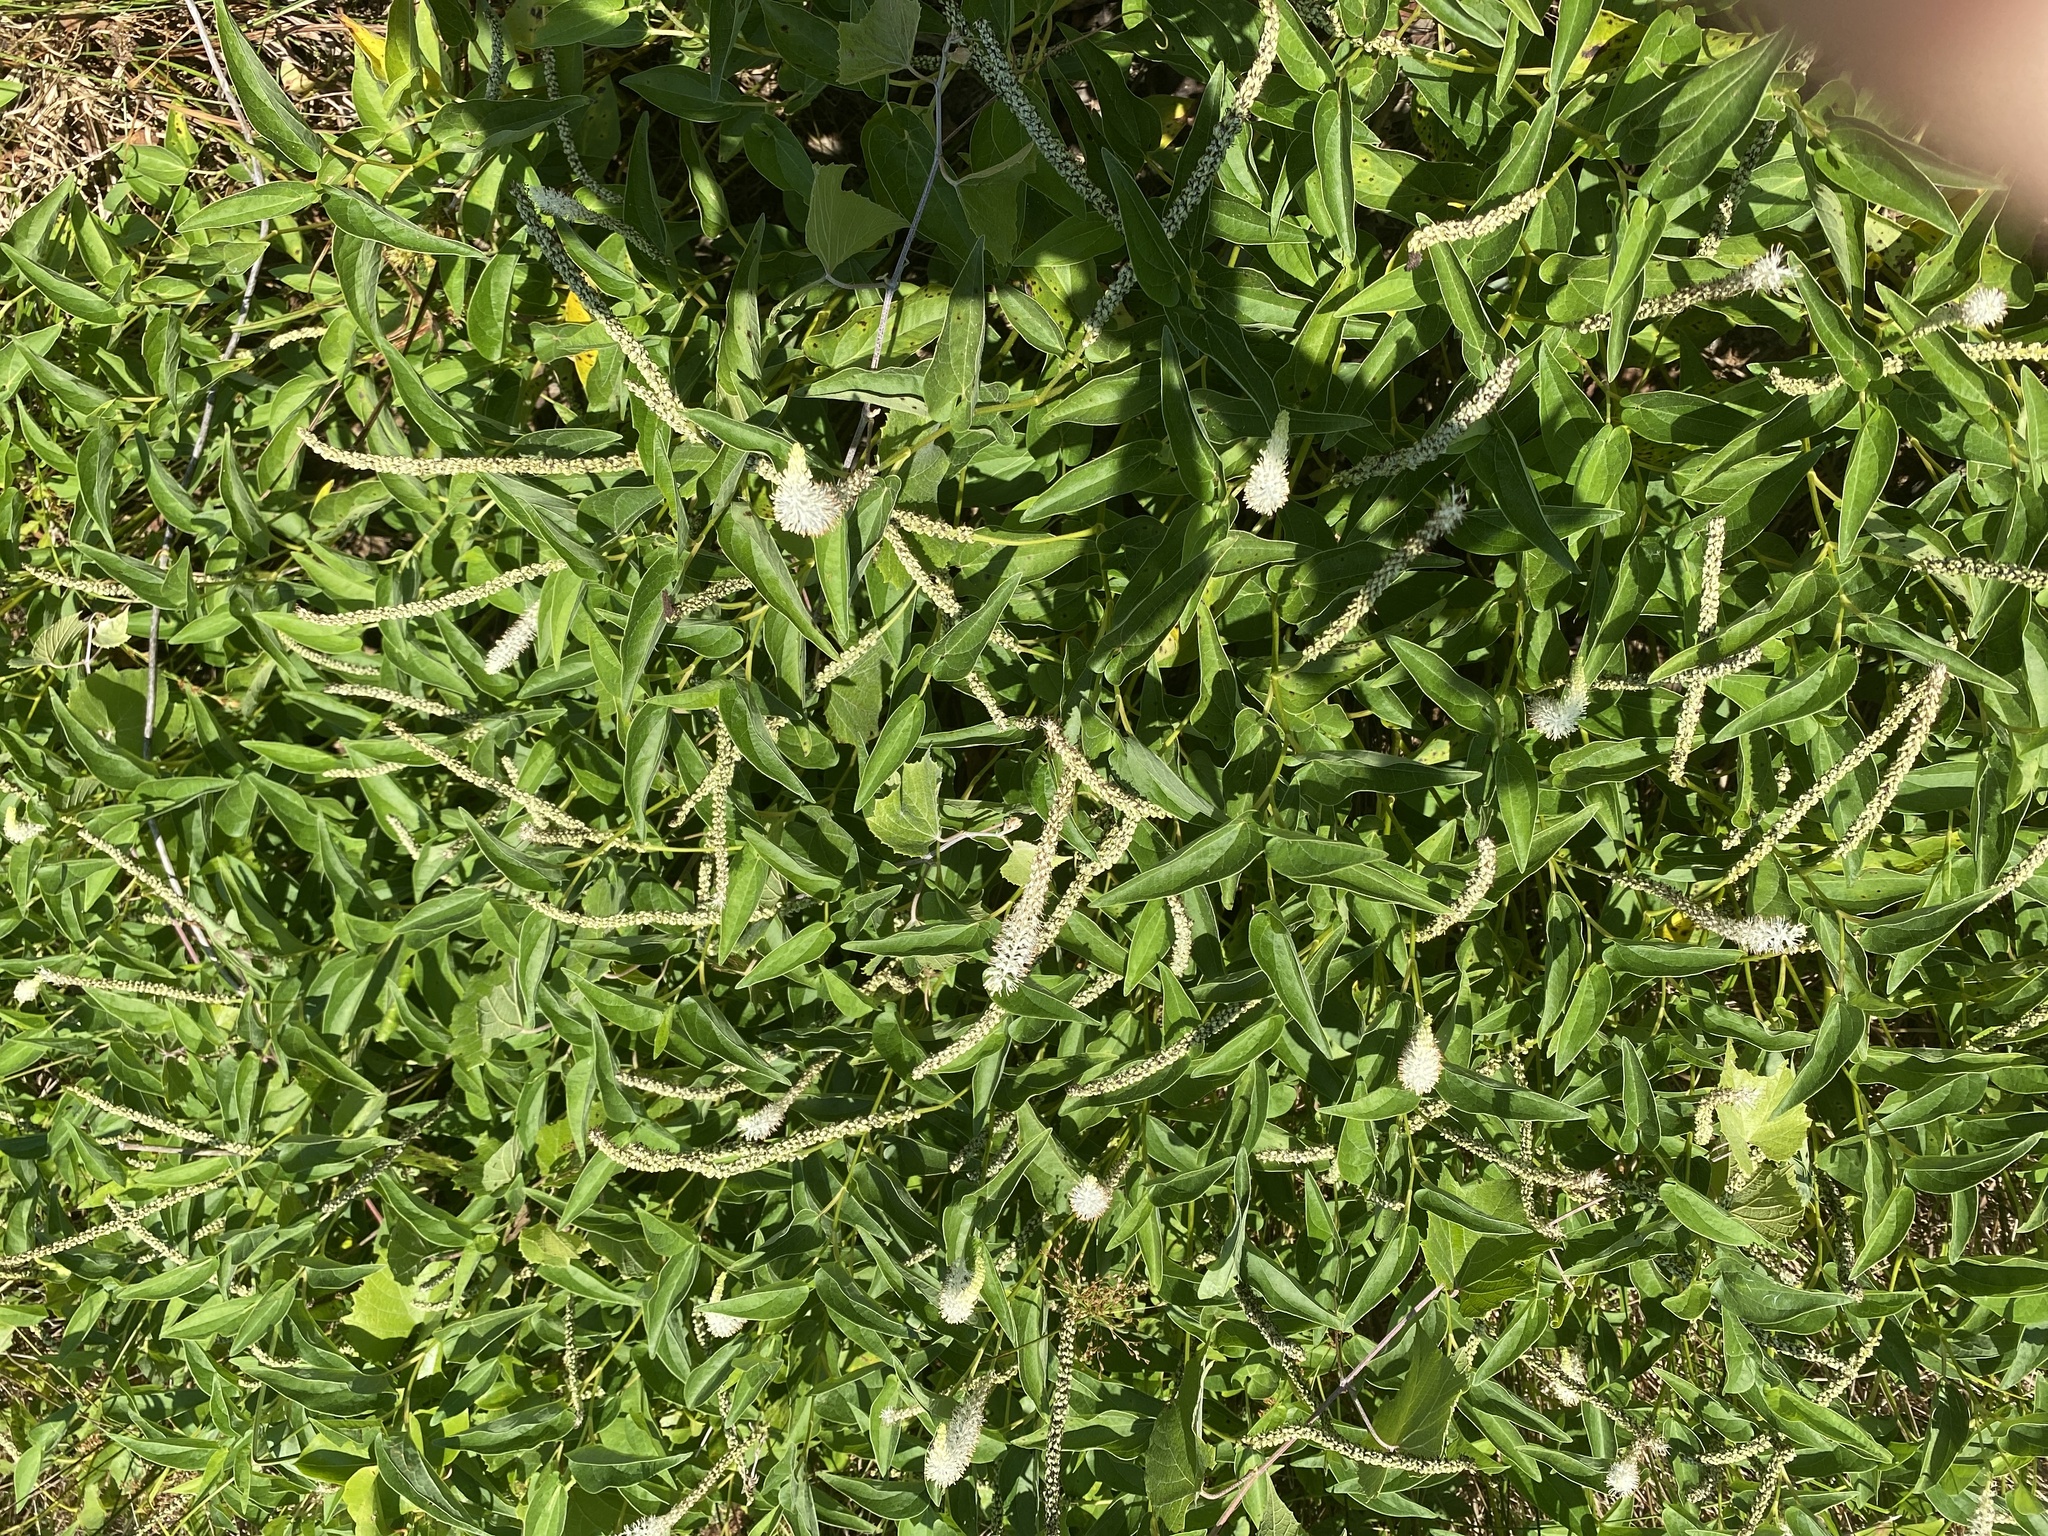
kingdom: Plantae
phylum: Tracheophyta
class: Magnoliopsida
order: Piperales
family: Saururaceae
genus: Saururus
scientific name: Saururus cernuus
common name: Lizard's-tail
